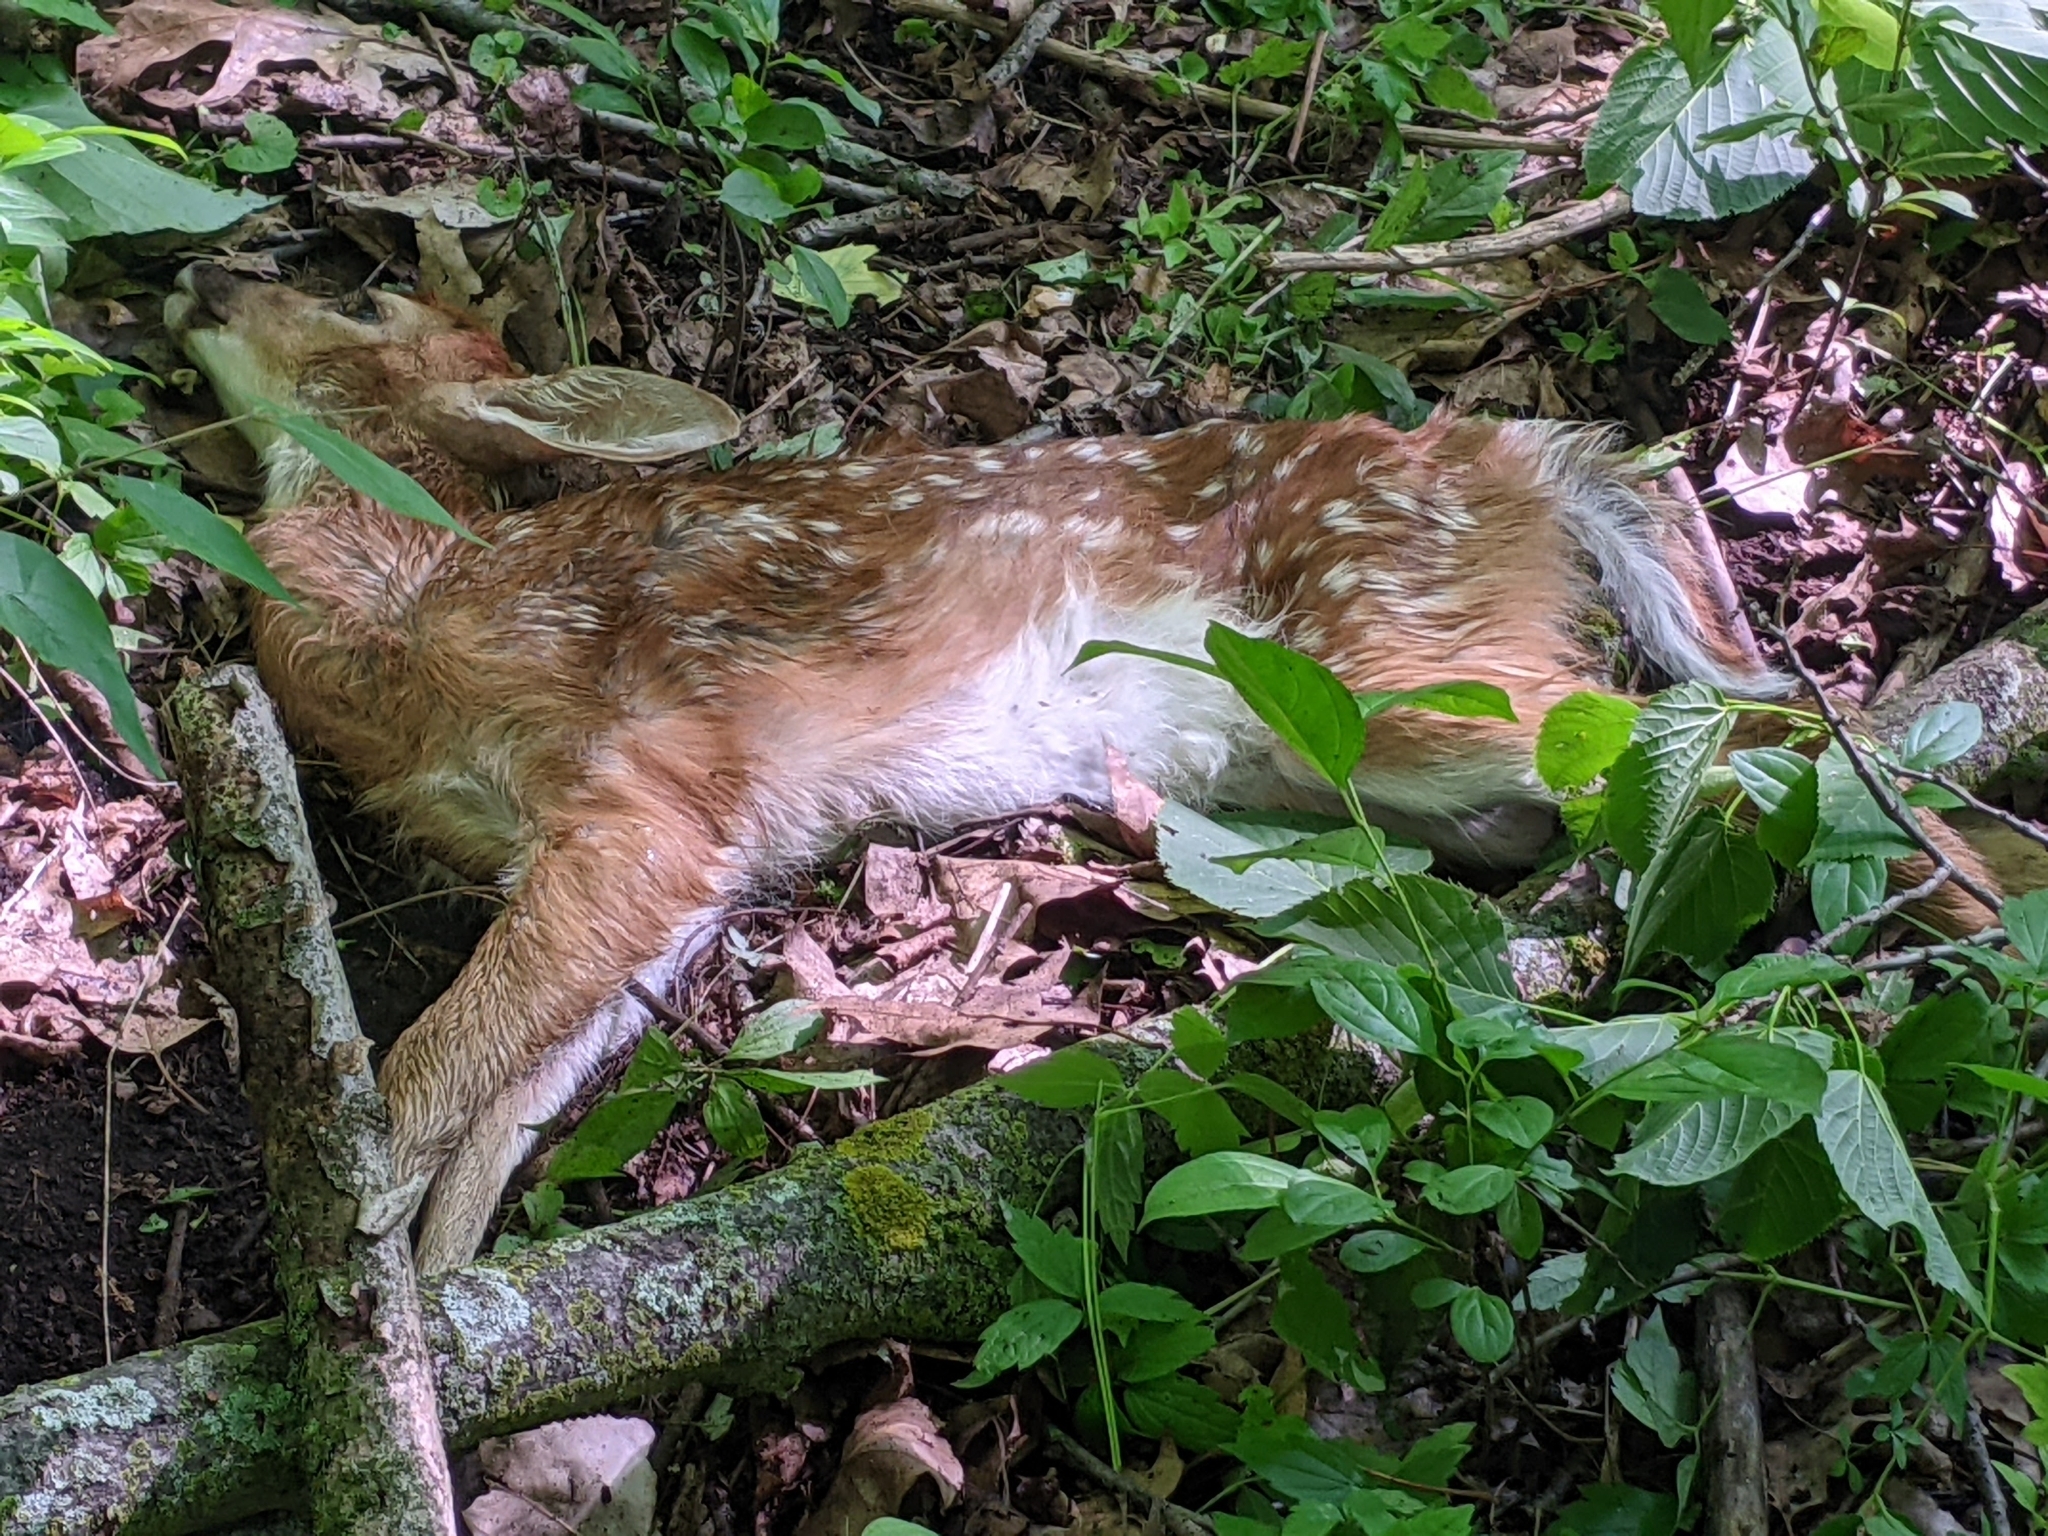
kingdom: Animalia
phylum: Chordata
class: Mammalia
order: Artiodactyla
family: Cervidae
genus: Odocoileus
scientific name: Odocoileus virginianus
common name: White-tailed deer
